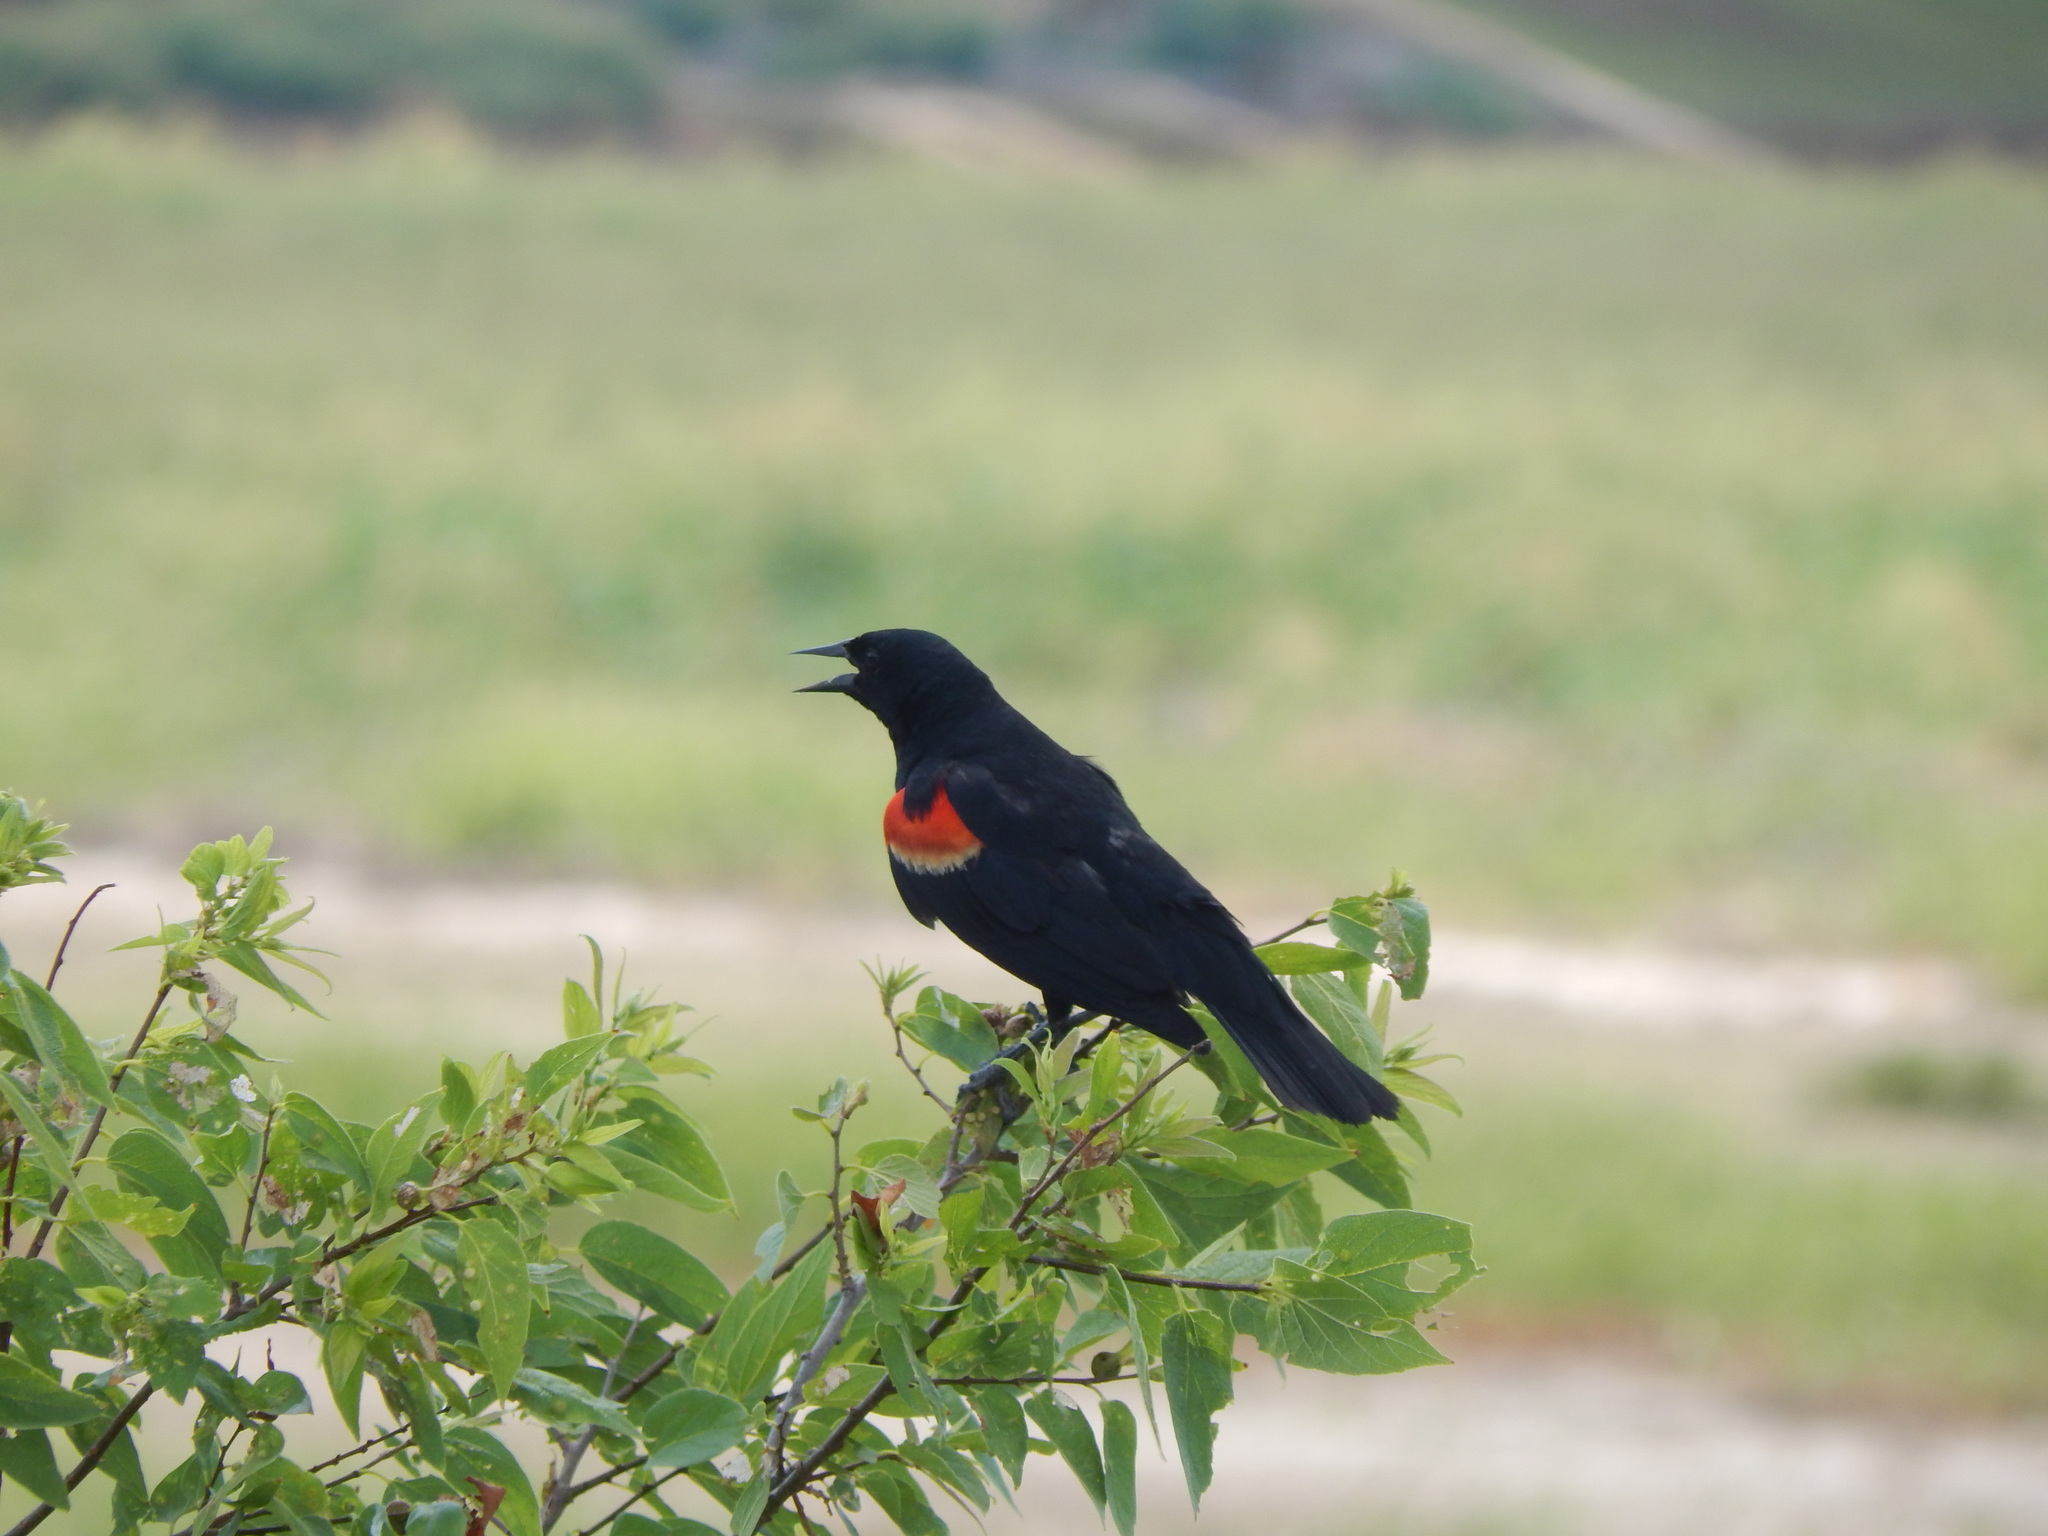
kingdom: Animalia
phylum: Chordata
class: Aves
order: Passeriformes
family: Icteridae
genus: Agelaius
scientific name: Agelaius phoeniceus
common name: Red-winged blackbird
